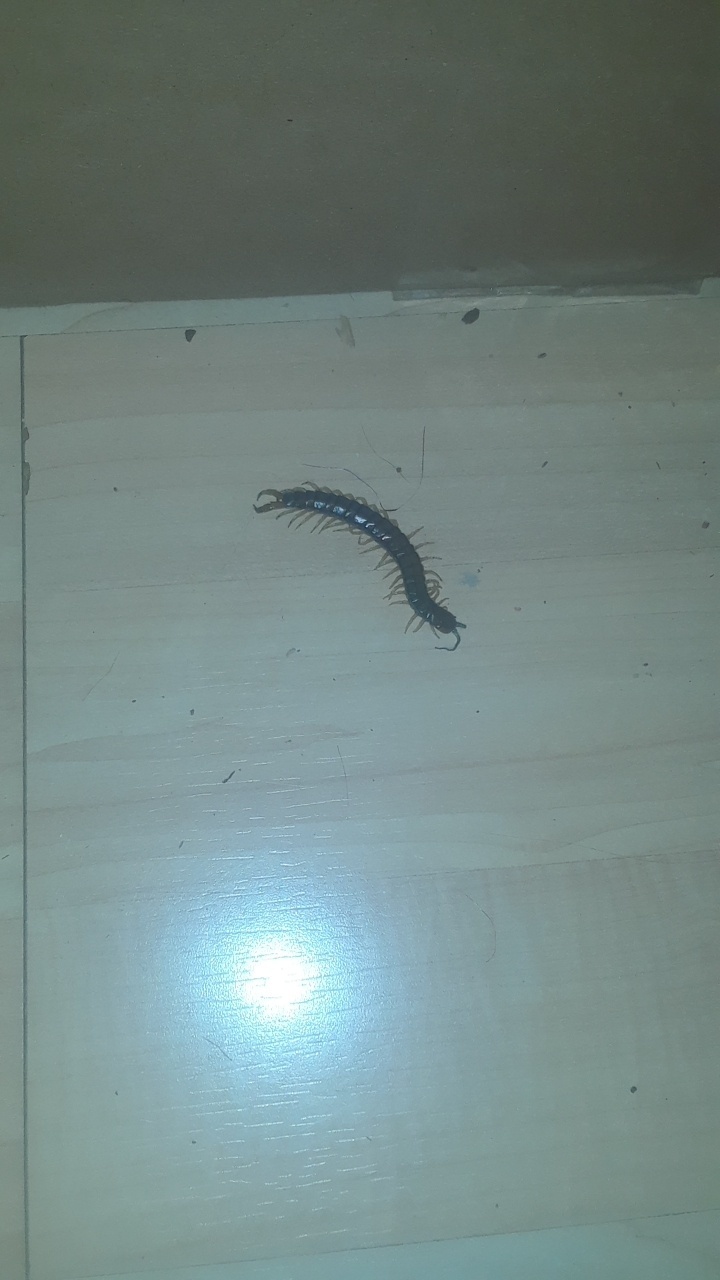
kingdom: Animalia
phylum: Arthropoda
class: Chilopoda
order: Scolopendromorpha
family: Scolopendridae
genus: Hemiscolopendra
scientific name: Hemiscolopendra marginata
